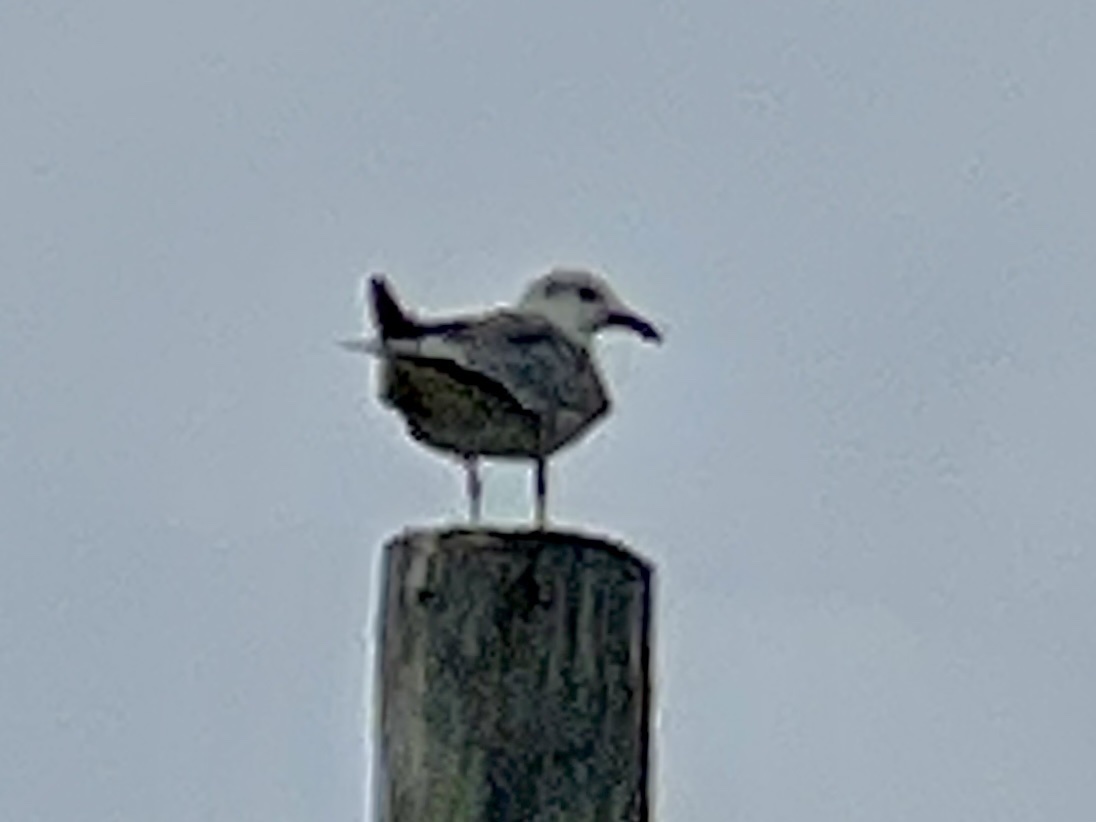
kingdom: Animalia
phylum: Chordata
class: Aves
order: Charadriiformes
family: Laridae
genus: Leucophaeus
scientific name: Leucophaeus atricilla
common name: Laughing gull
